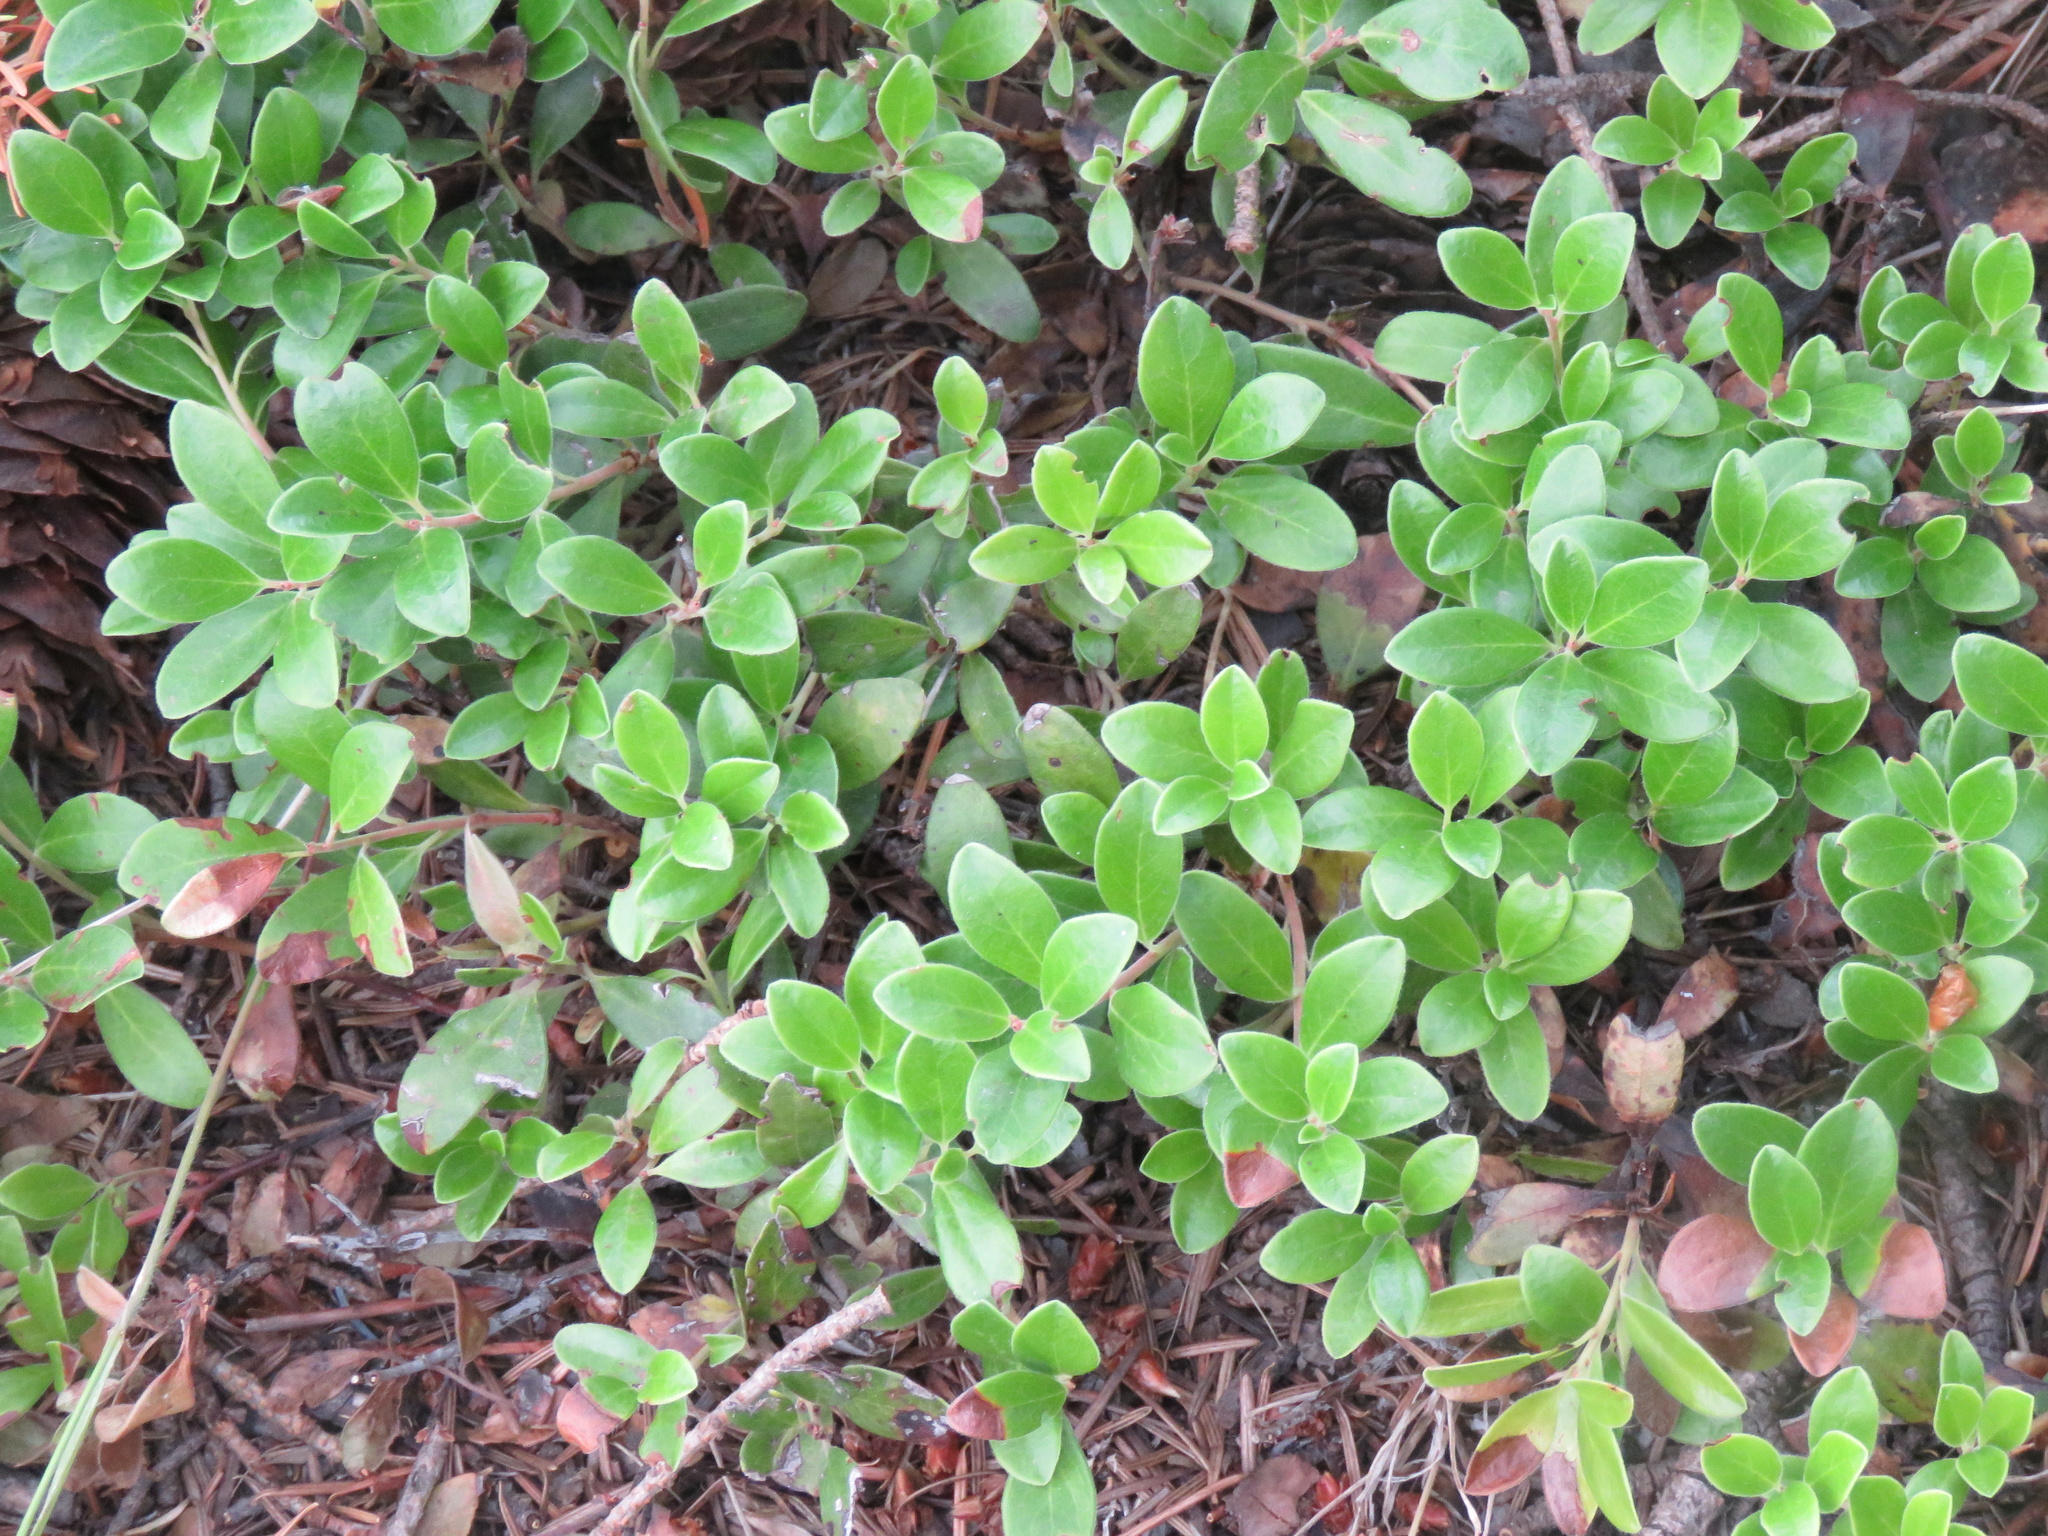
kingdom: Plantae
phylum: Tracheophyta
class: Magnoliopsida
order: Ericales
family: Ericaceae
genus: Arctostaphylos
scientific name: Arctostaphylos uva-ursi
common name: Bearberry
